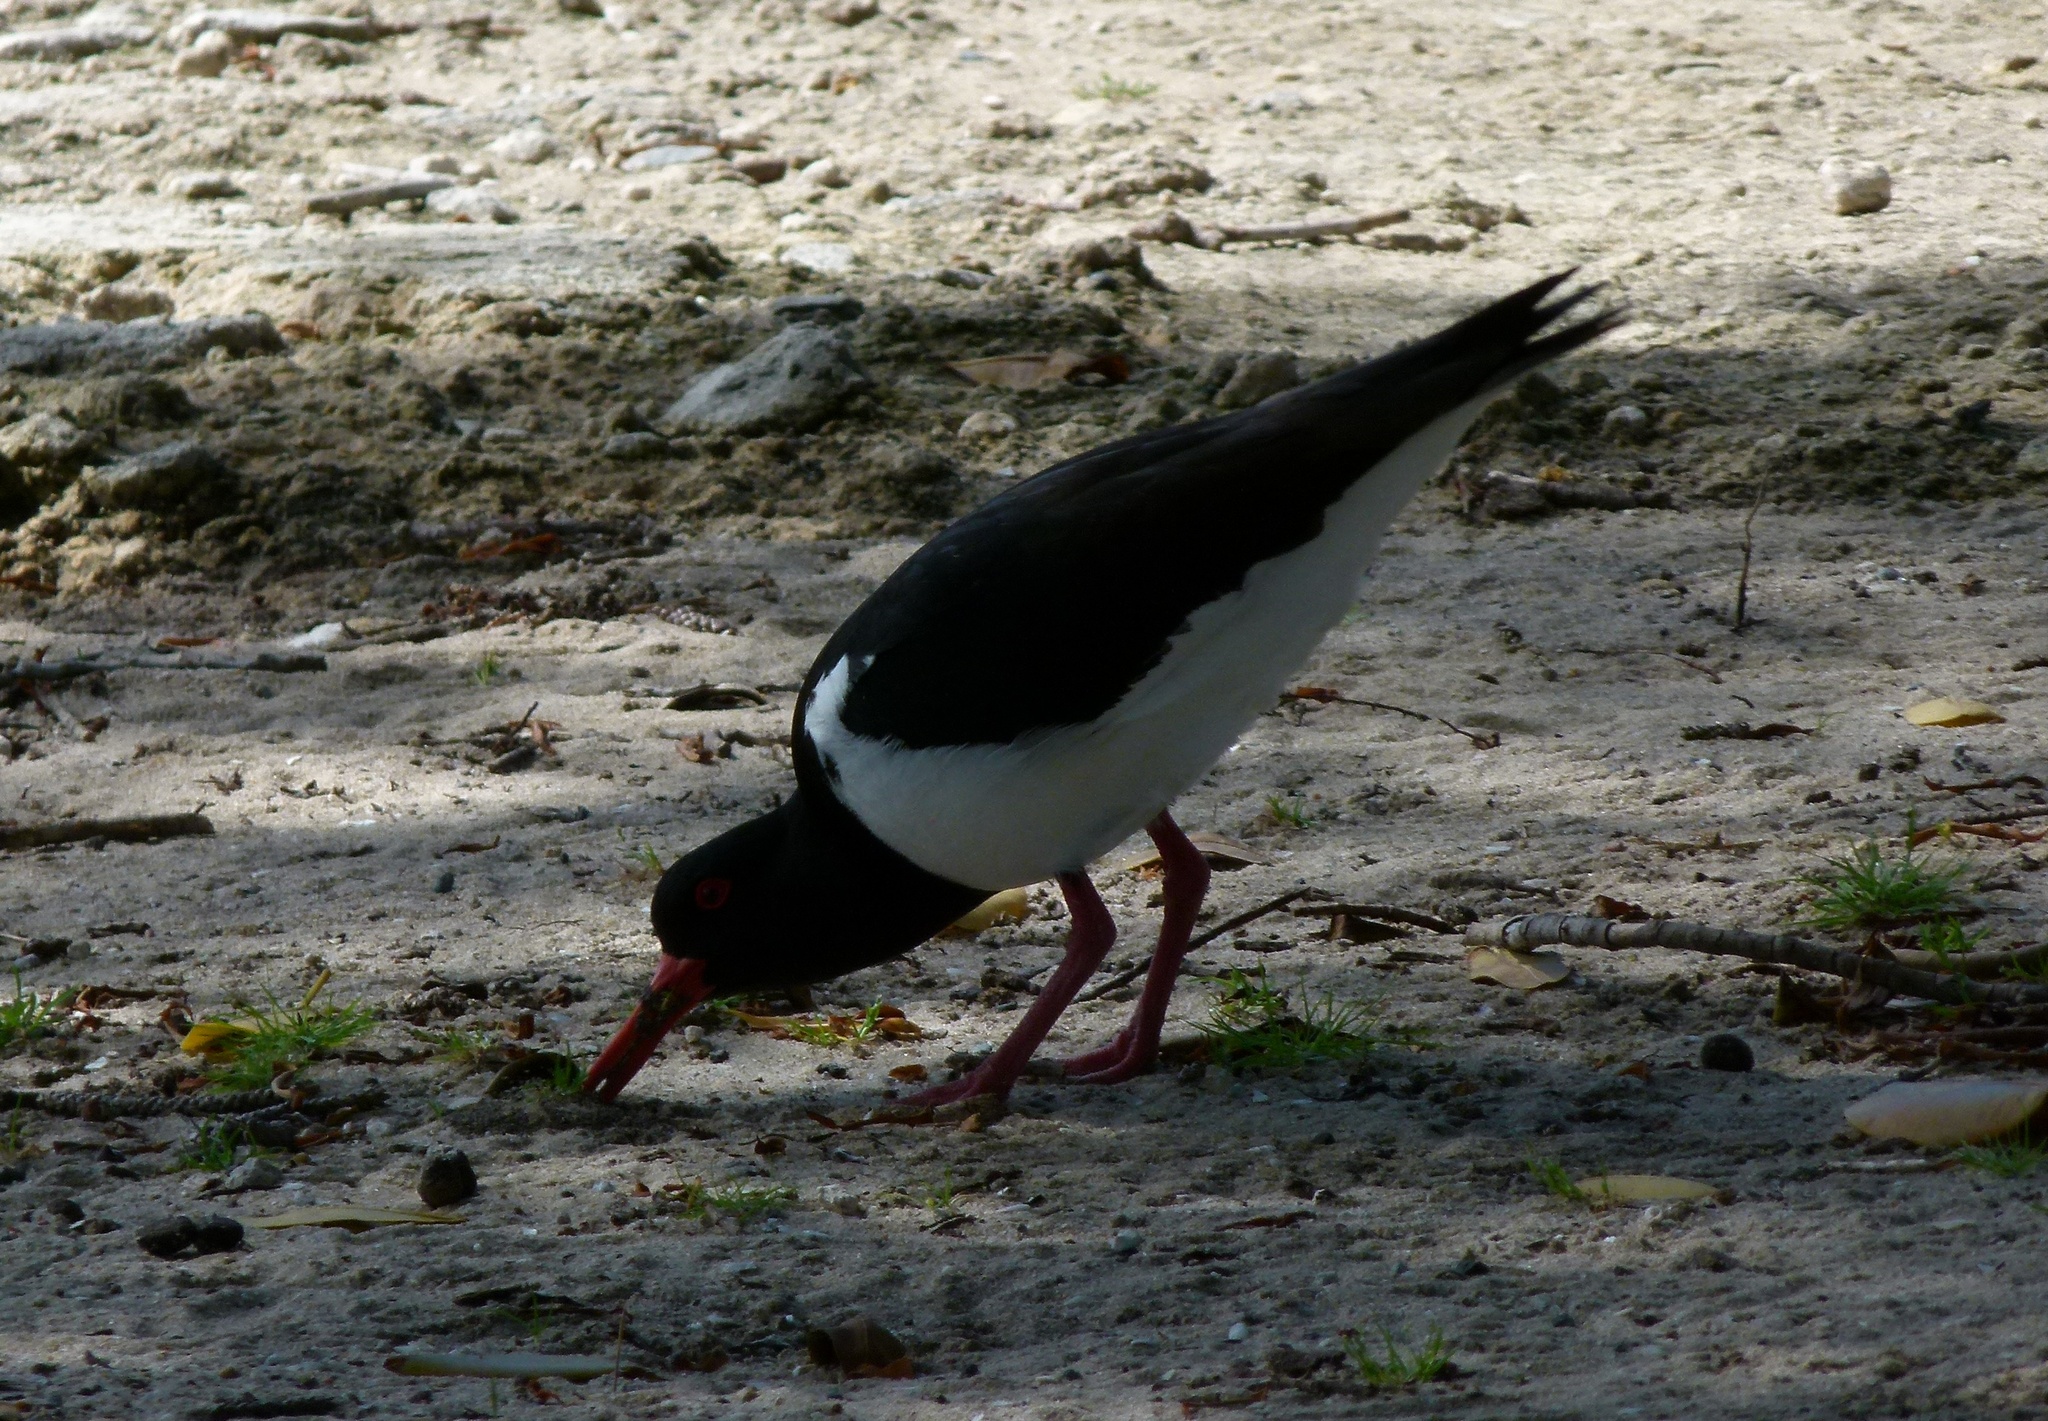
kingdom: Animalia
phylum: Chordata
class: Aves
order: Charadriiformes
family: Haematopodidae
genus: Haematopus
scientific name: Haematopus longirostris
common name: Pied oystercatcher
